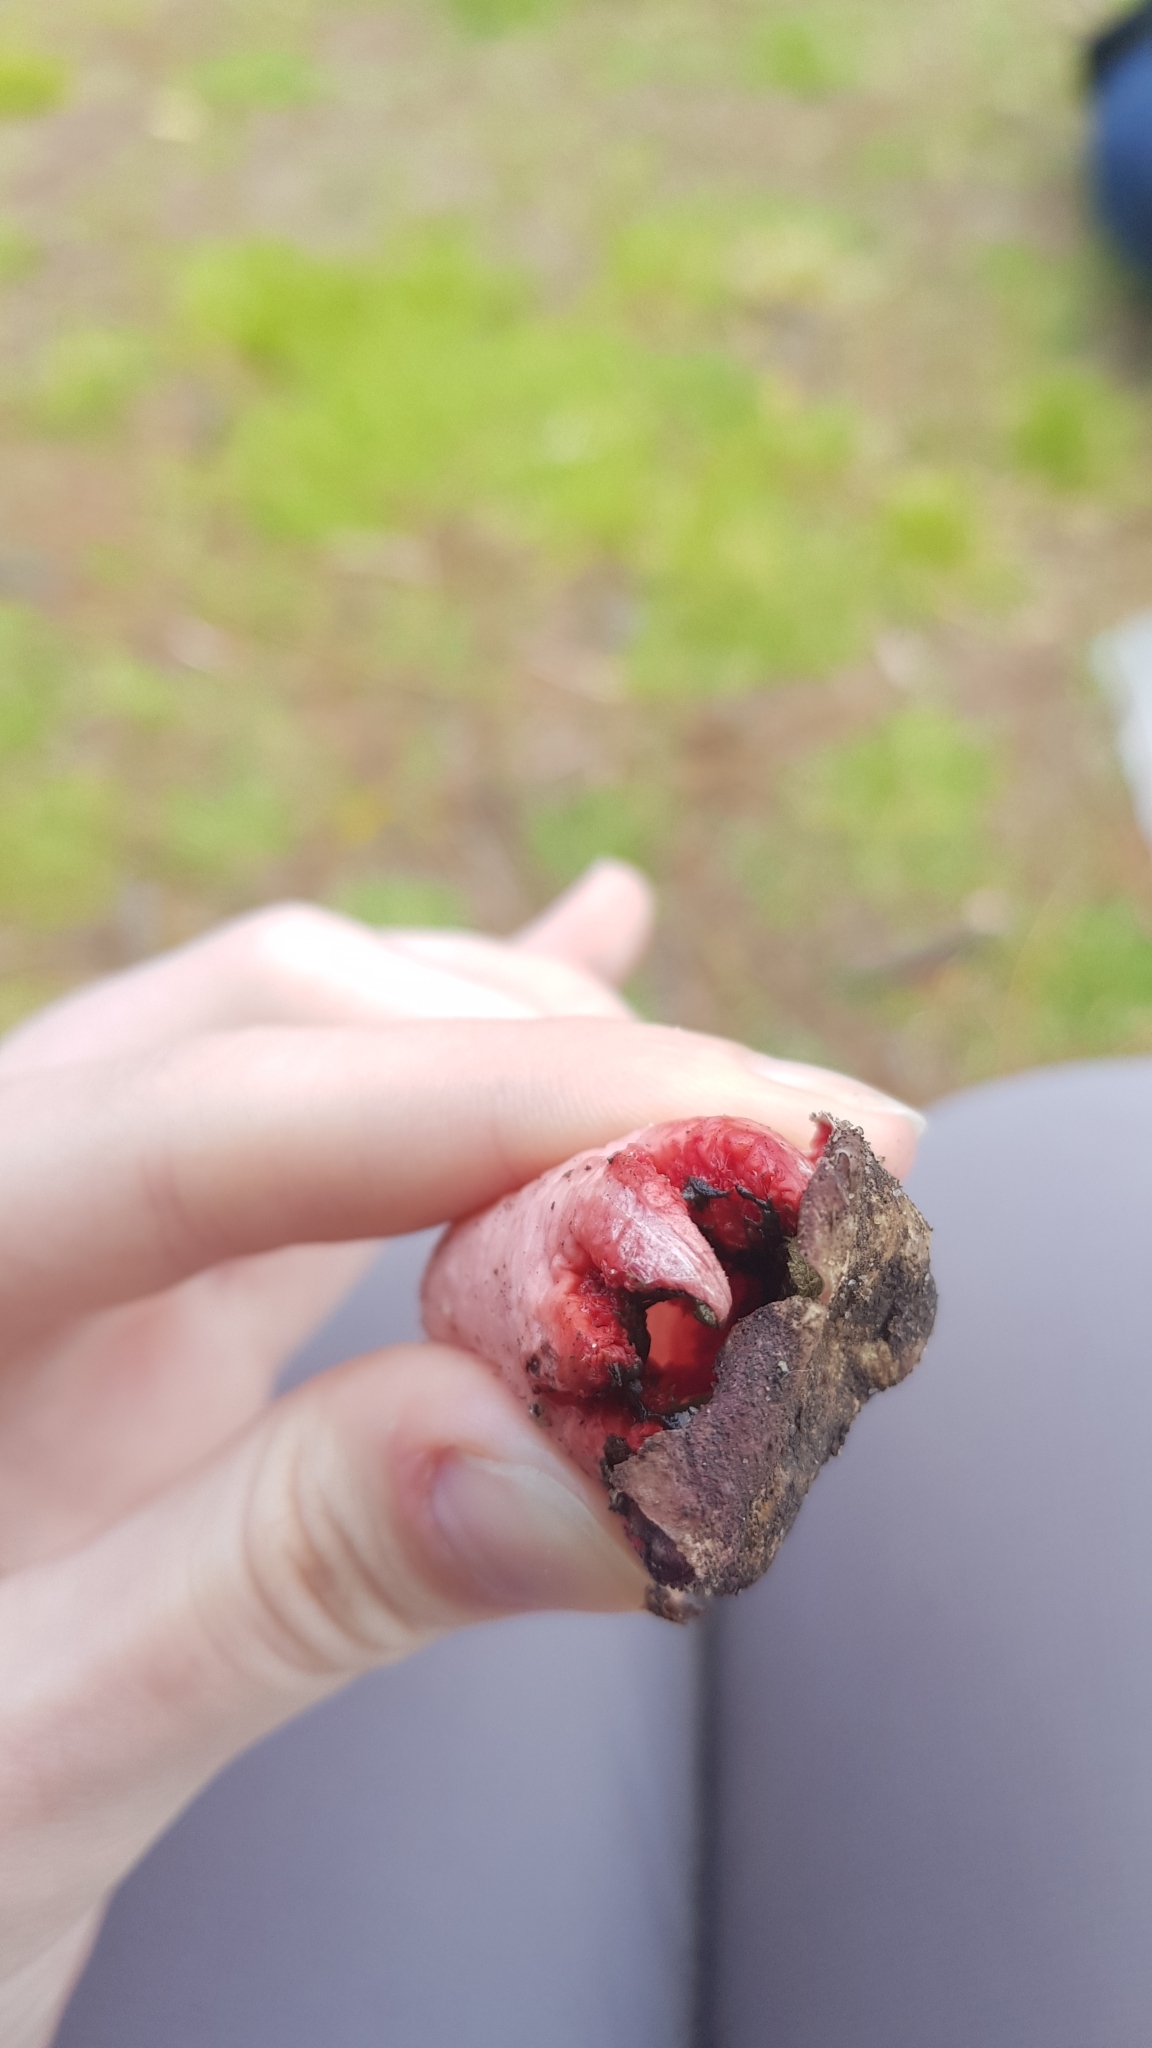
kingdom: Fungi
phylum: Basidiomycota
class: Agaricomycetes
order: Phallales
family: Phallaceae
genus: Aseroe
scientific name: Aseroe rubra
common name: Starfish fungus
